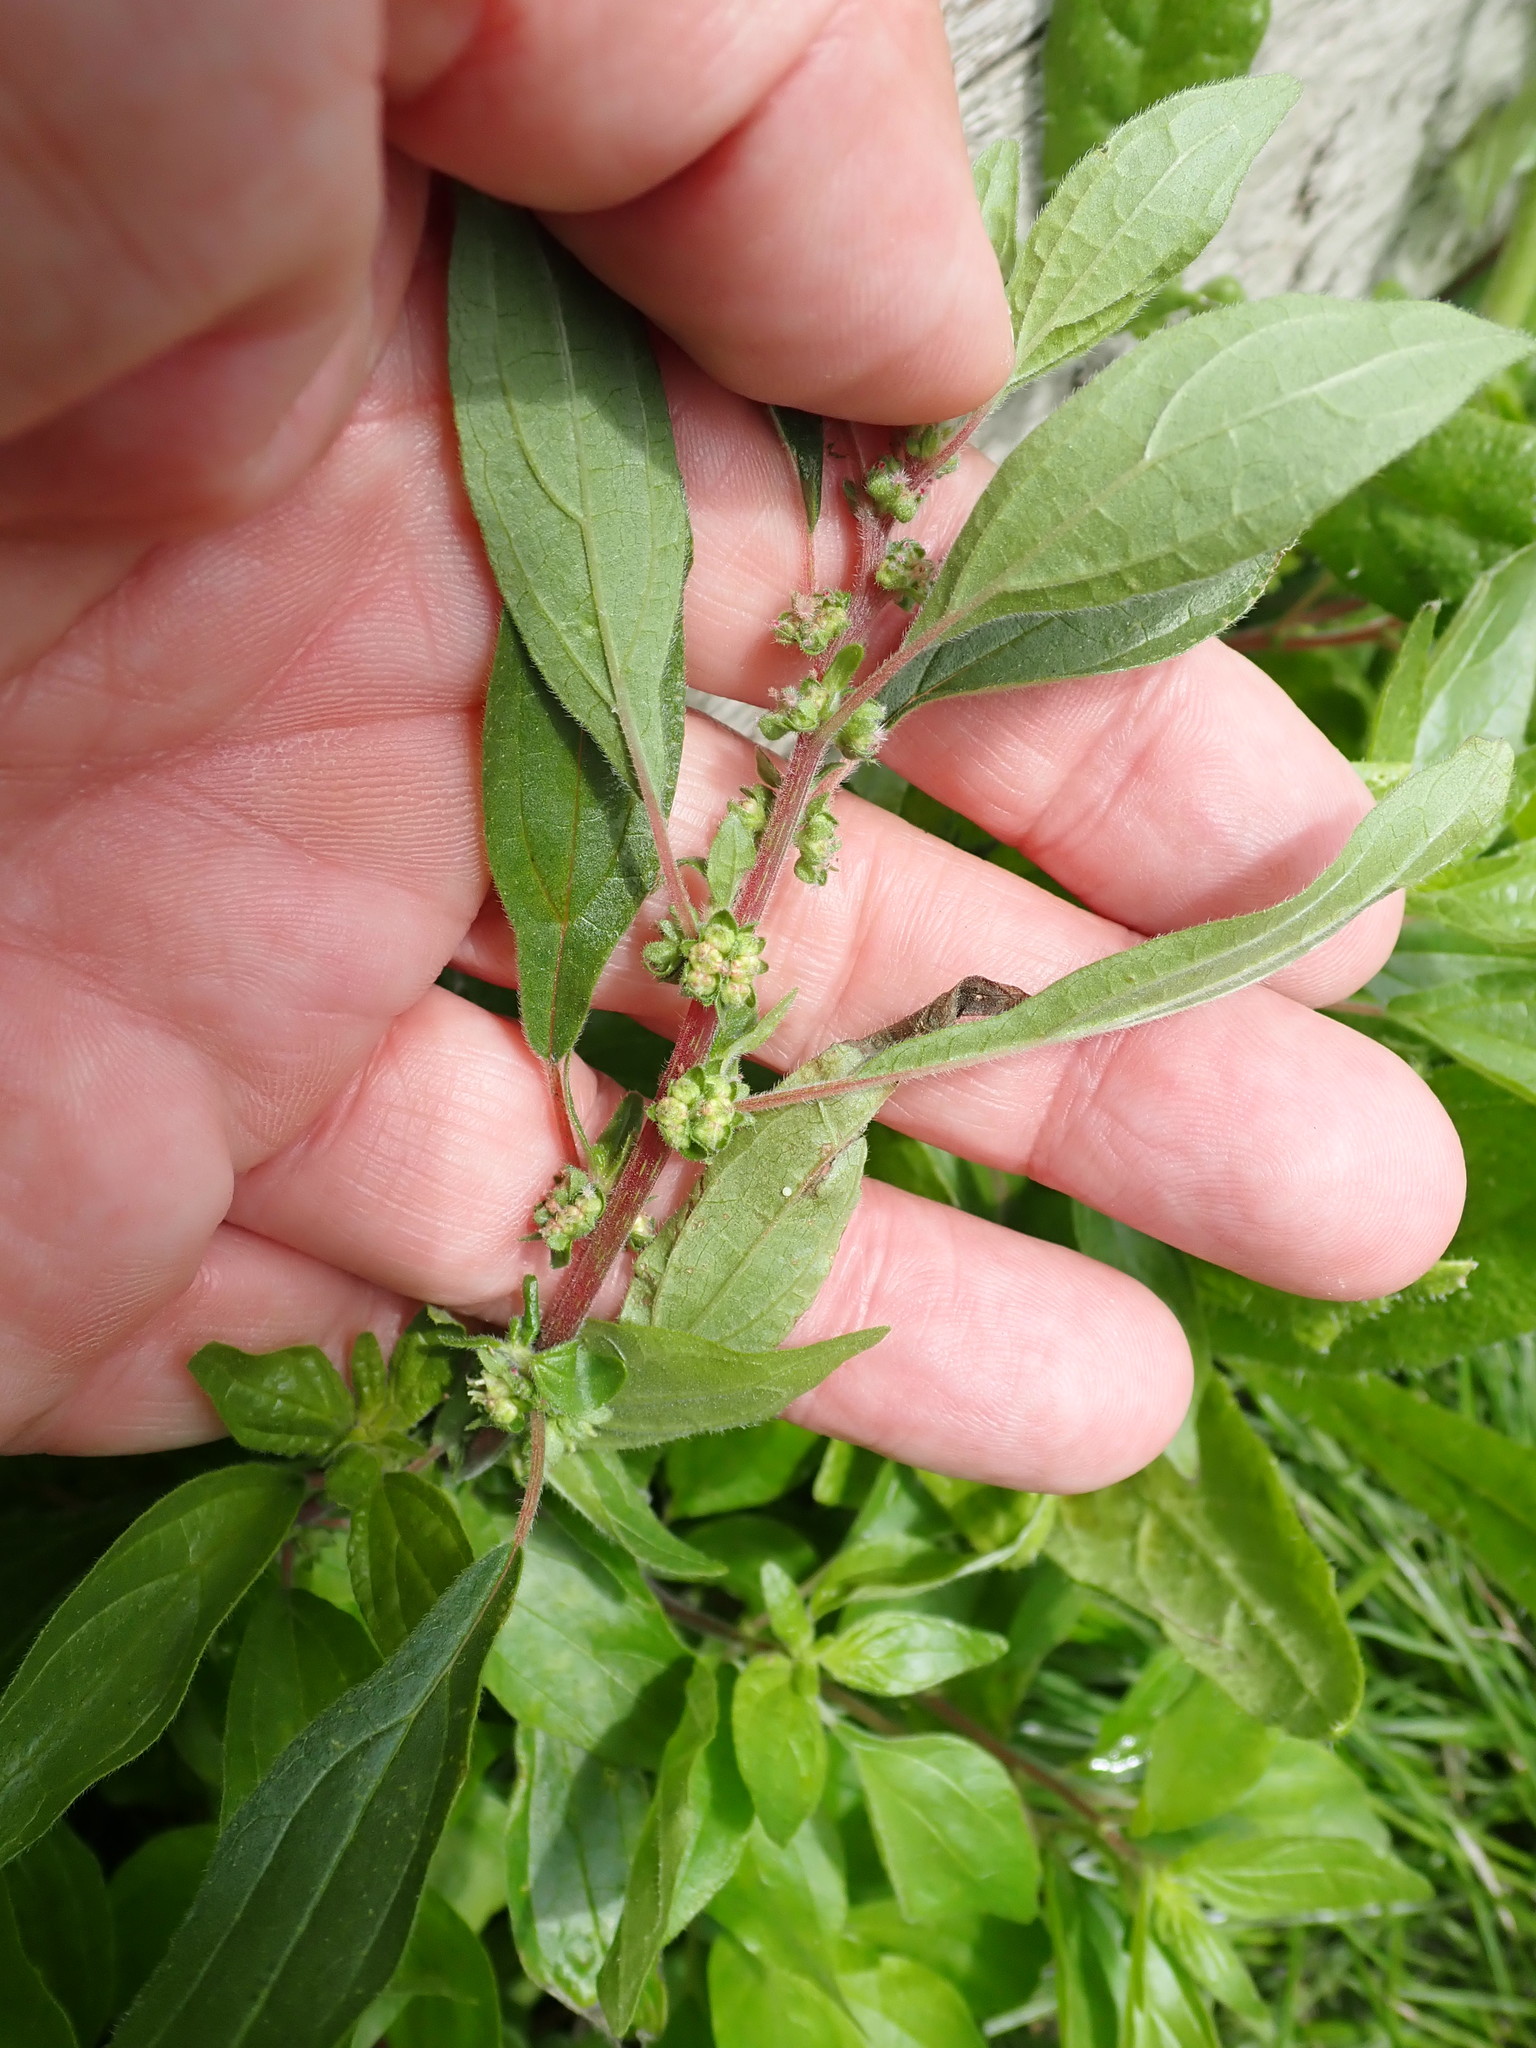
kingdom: Plantae
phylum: Tracheophyta
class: Magnoliopsida
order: Rosales
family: Urticaceae
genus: Parietaria
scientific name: Parietaria judaica
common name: Pellitory-of-the-wall
